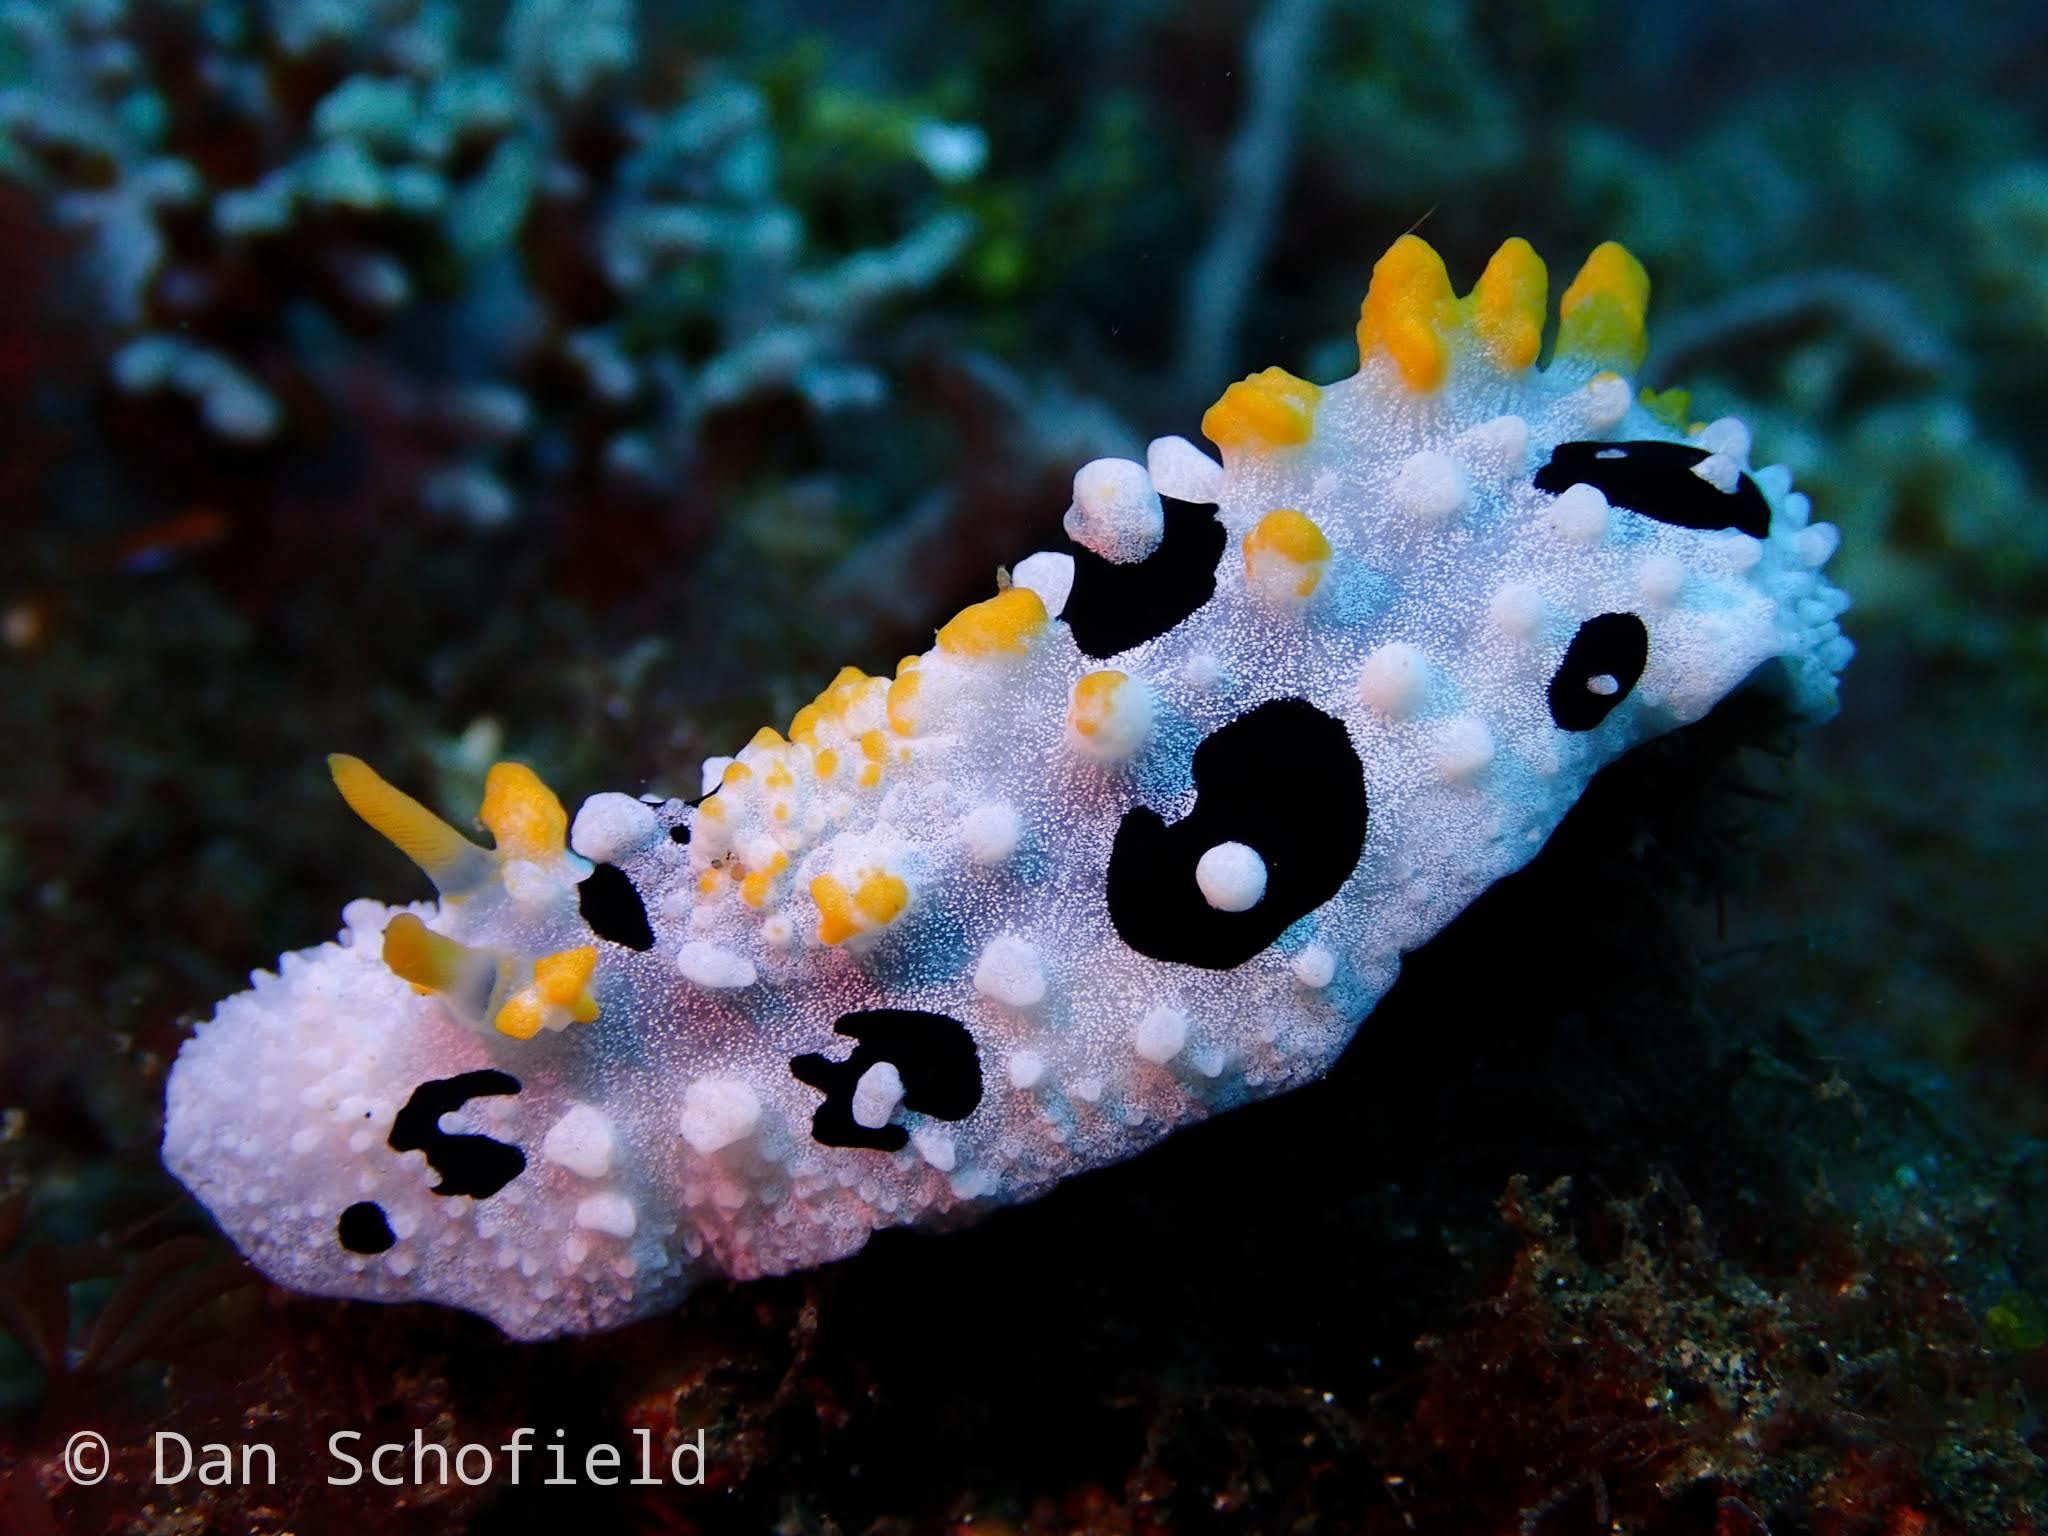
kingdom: Animalia
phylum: Mollusca
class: Gastropoda
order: Nudibranchia
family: Phyllidiidae
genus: Phyllidia
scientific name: Phyllidia babai
